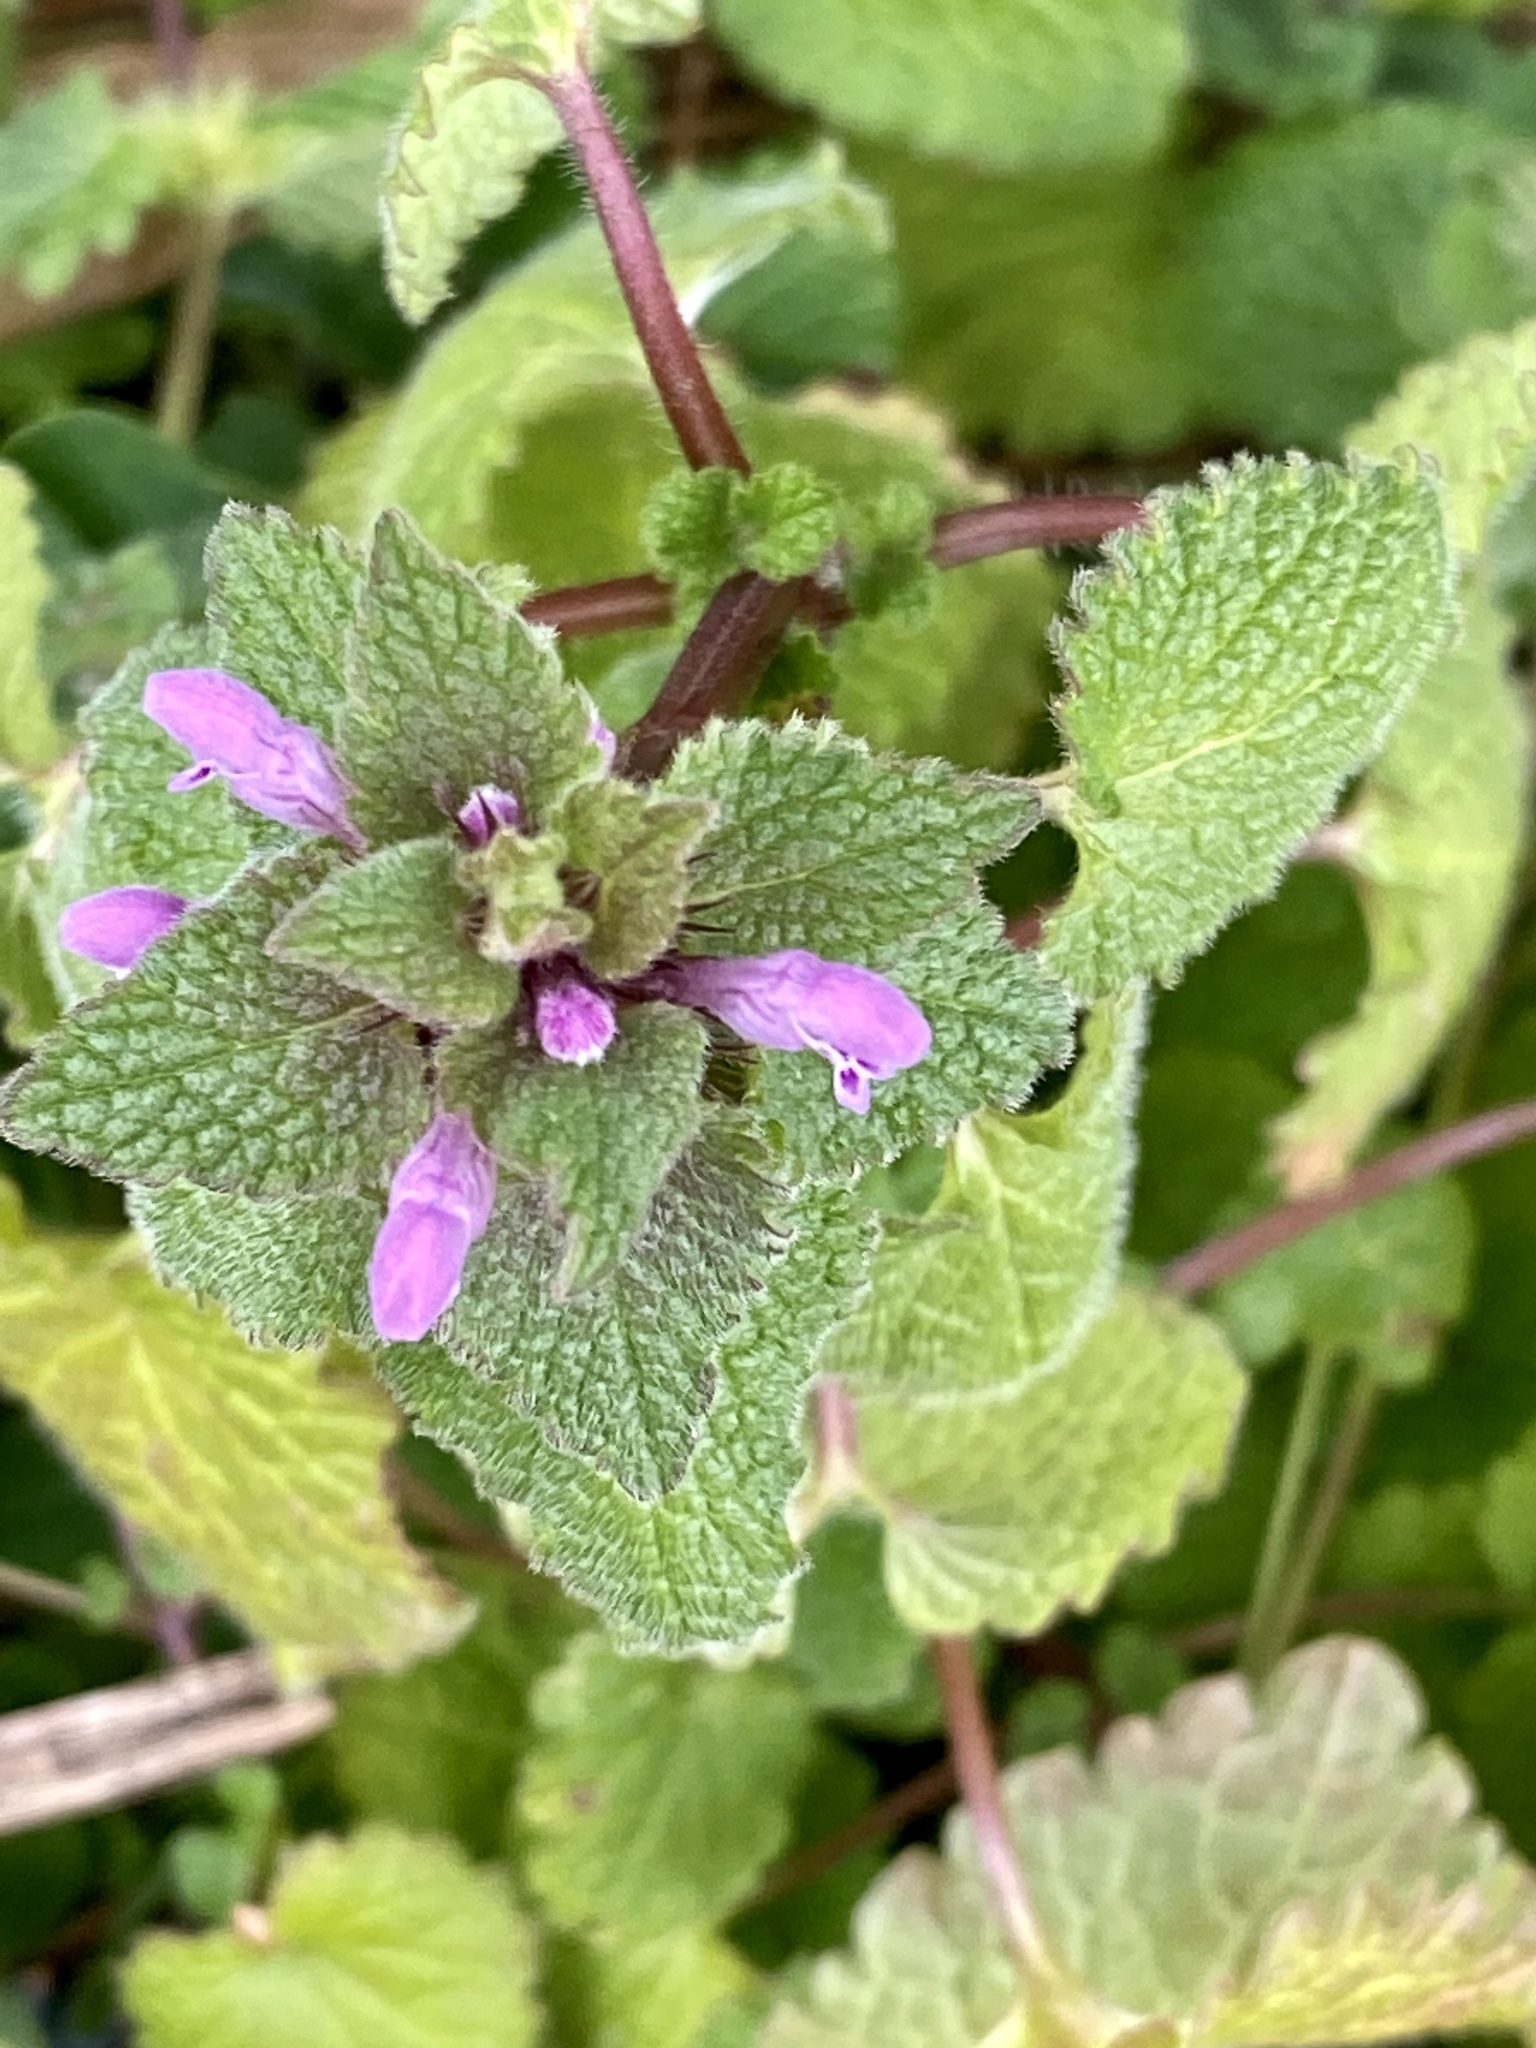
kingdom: Plantae
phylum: Tracheophyta
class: Magnoliopsida
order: Lamiales
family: Lamiaceae
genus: Lamium
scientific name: Lamium purpureum
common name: Red dead-nettle
